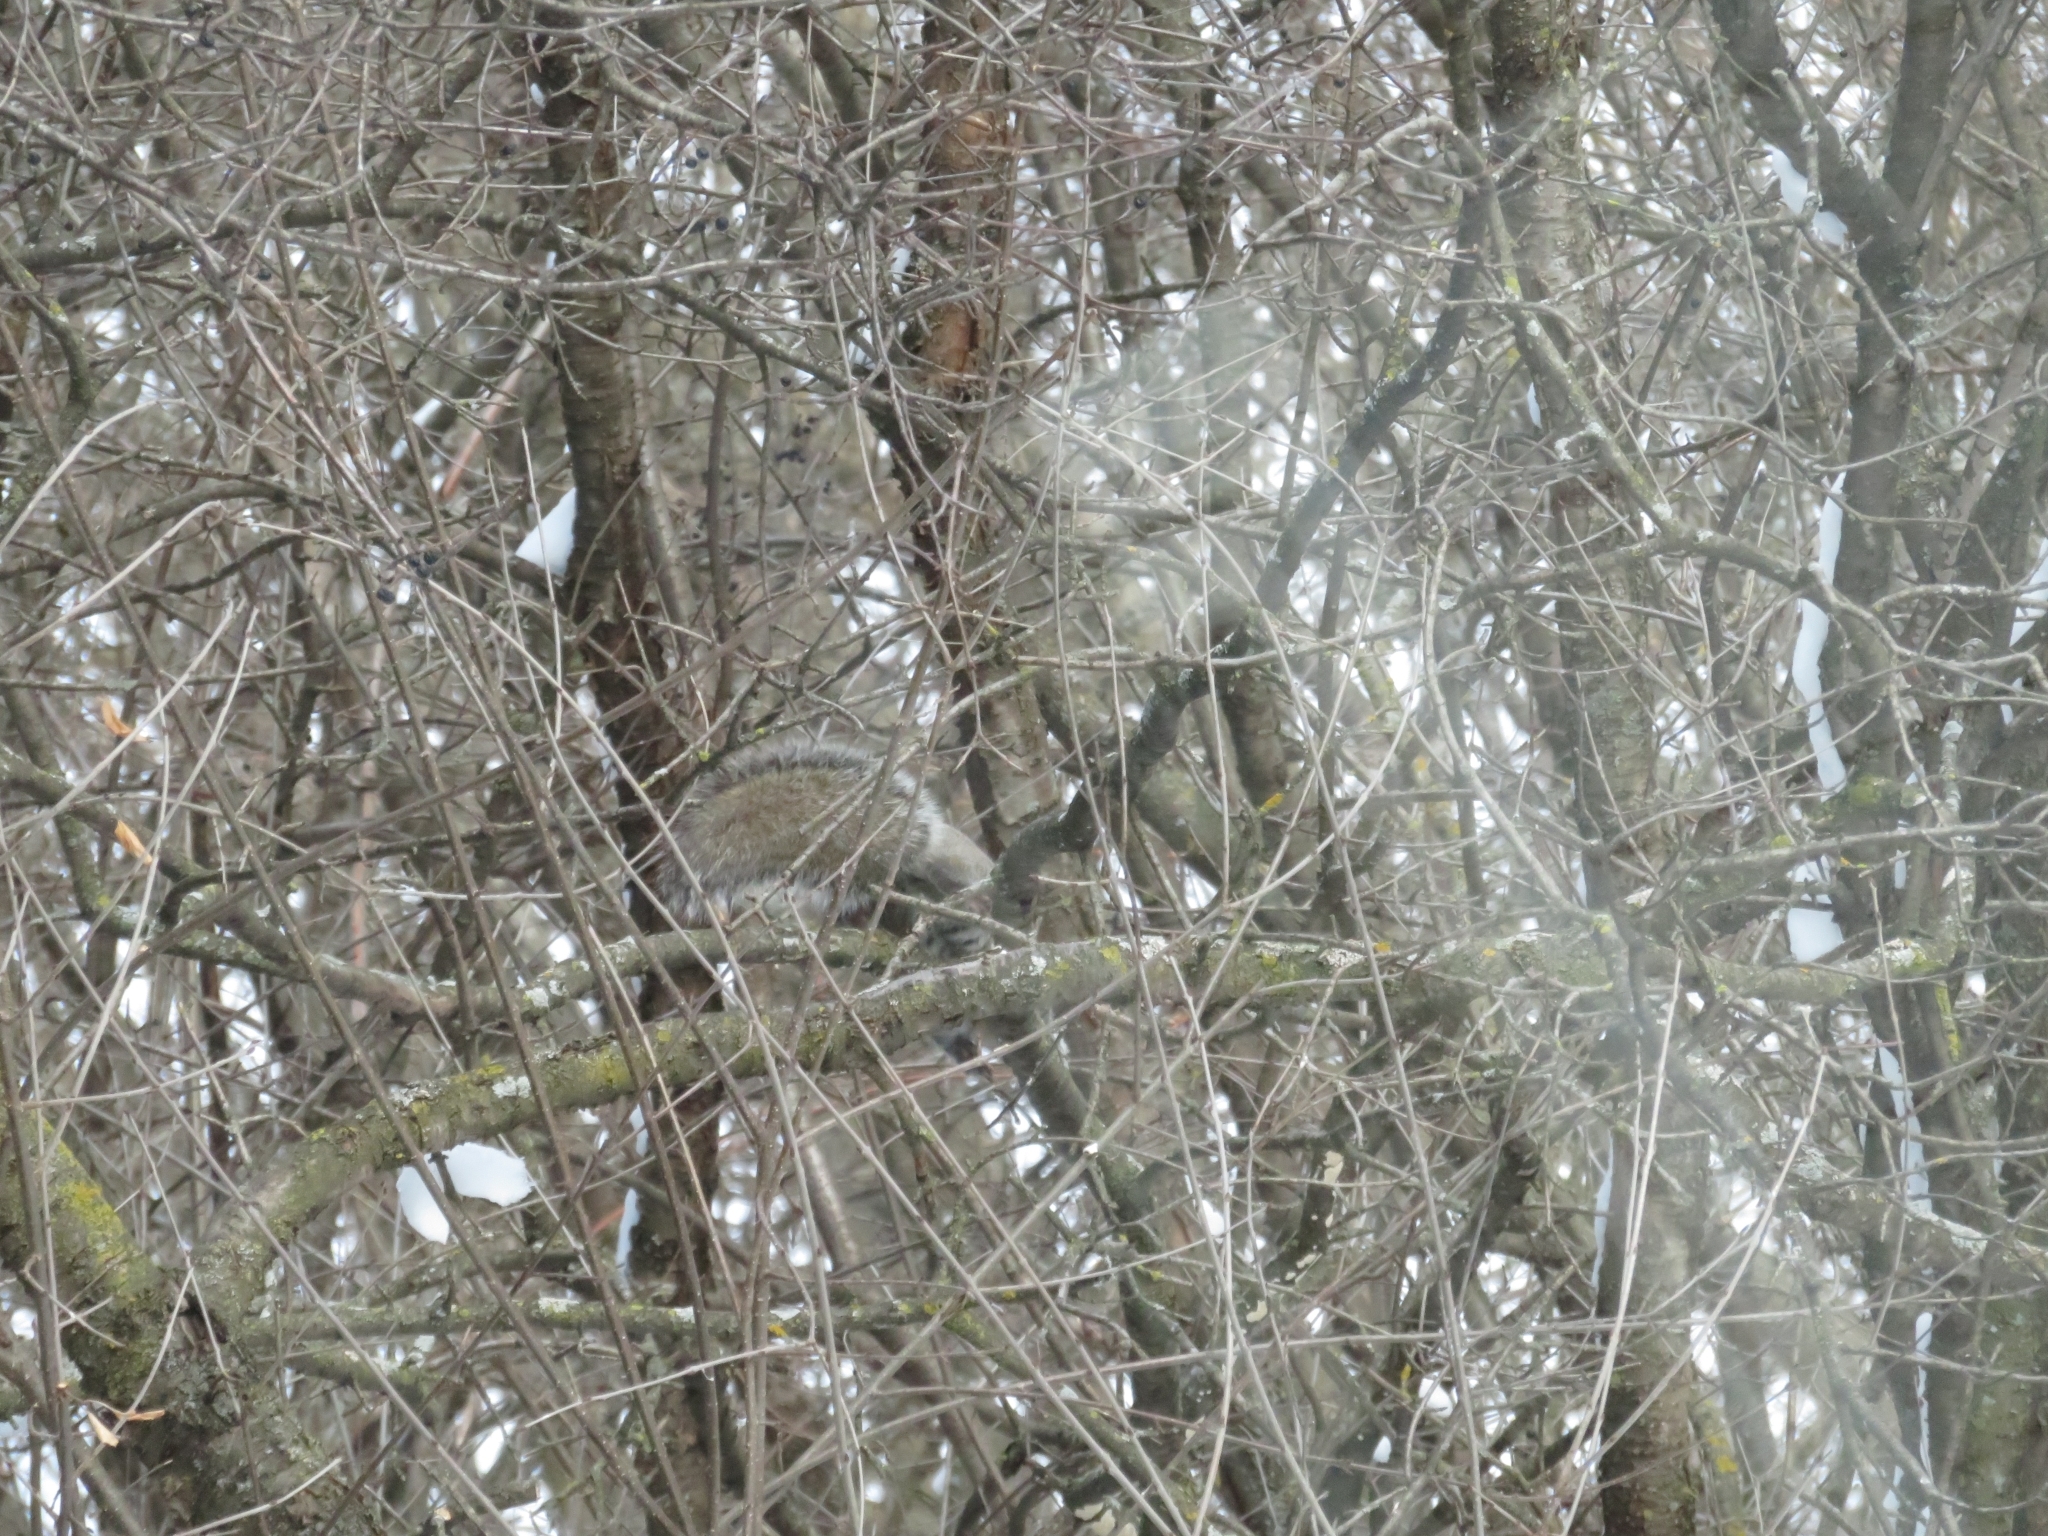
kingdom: Animalia
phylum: Chordata
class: Mammalia
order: Rodentia
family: Sciuridae
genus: Sciurus
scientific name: Sciurus carolinensis
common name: Eastern gray squirrel
